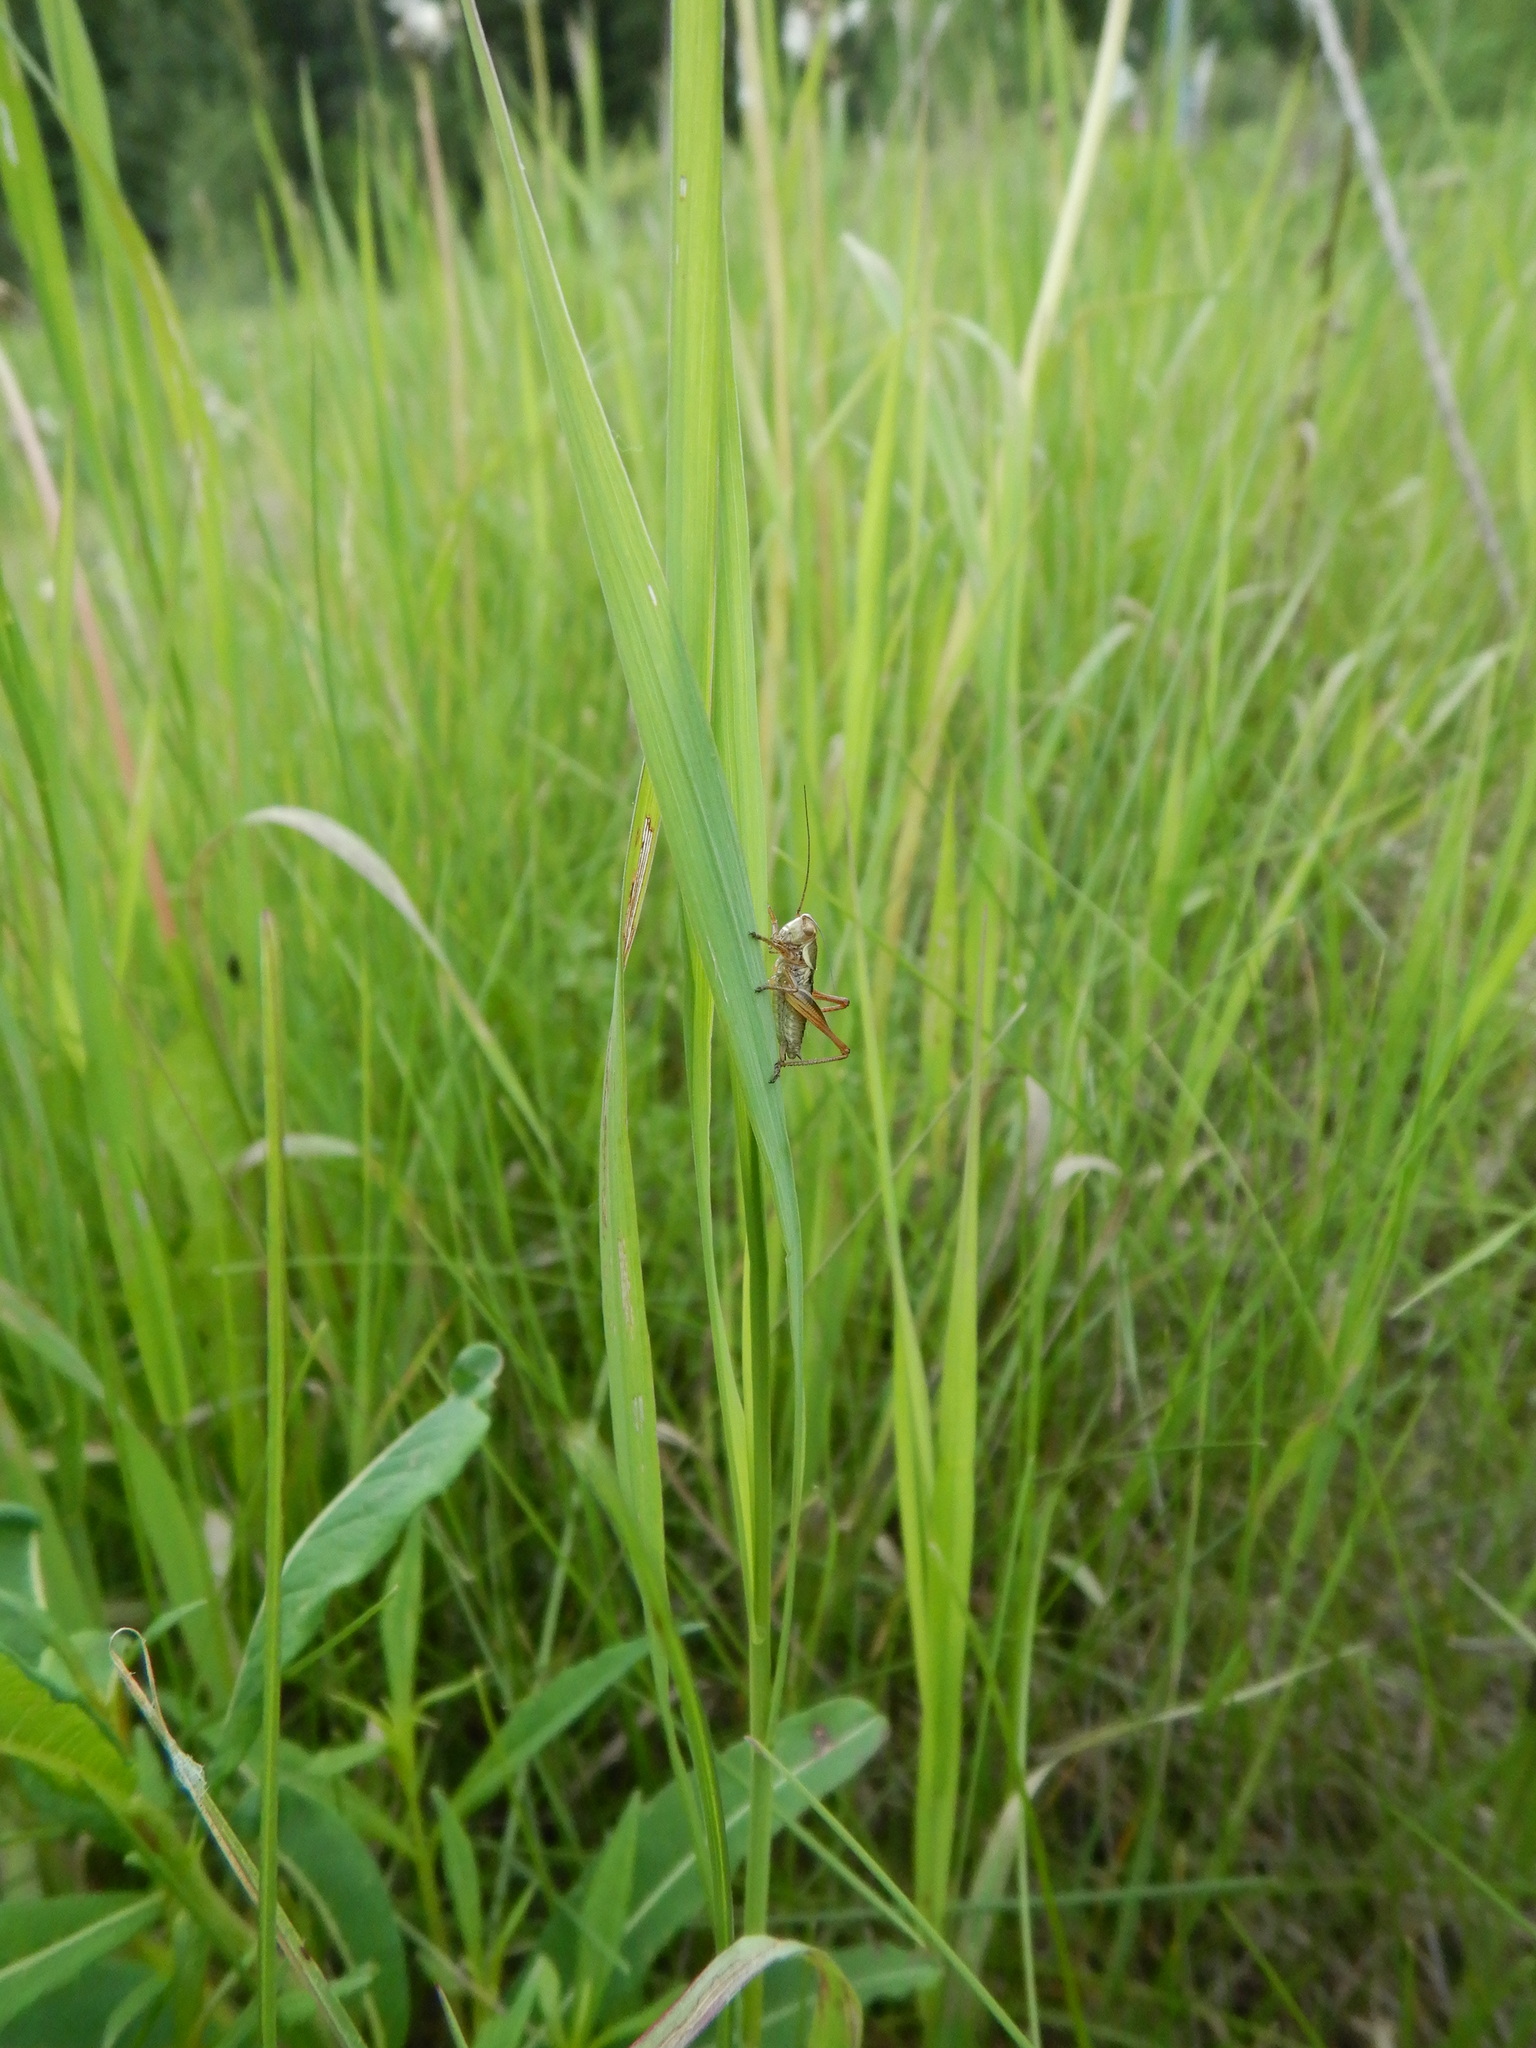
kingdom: Animalia
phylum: Arthropoda
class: Insecta
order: Orthoptera
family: Tettigoniidae
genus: Roeseliana
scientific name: Roeseliana roeselii
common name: Roesel's bush cricket
